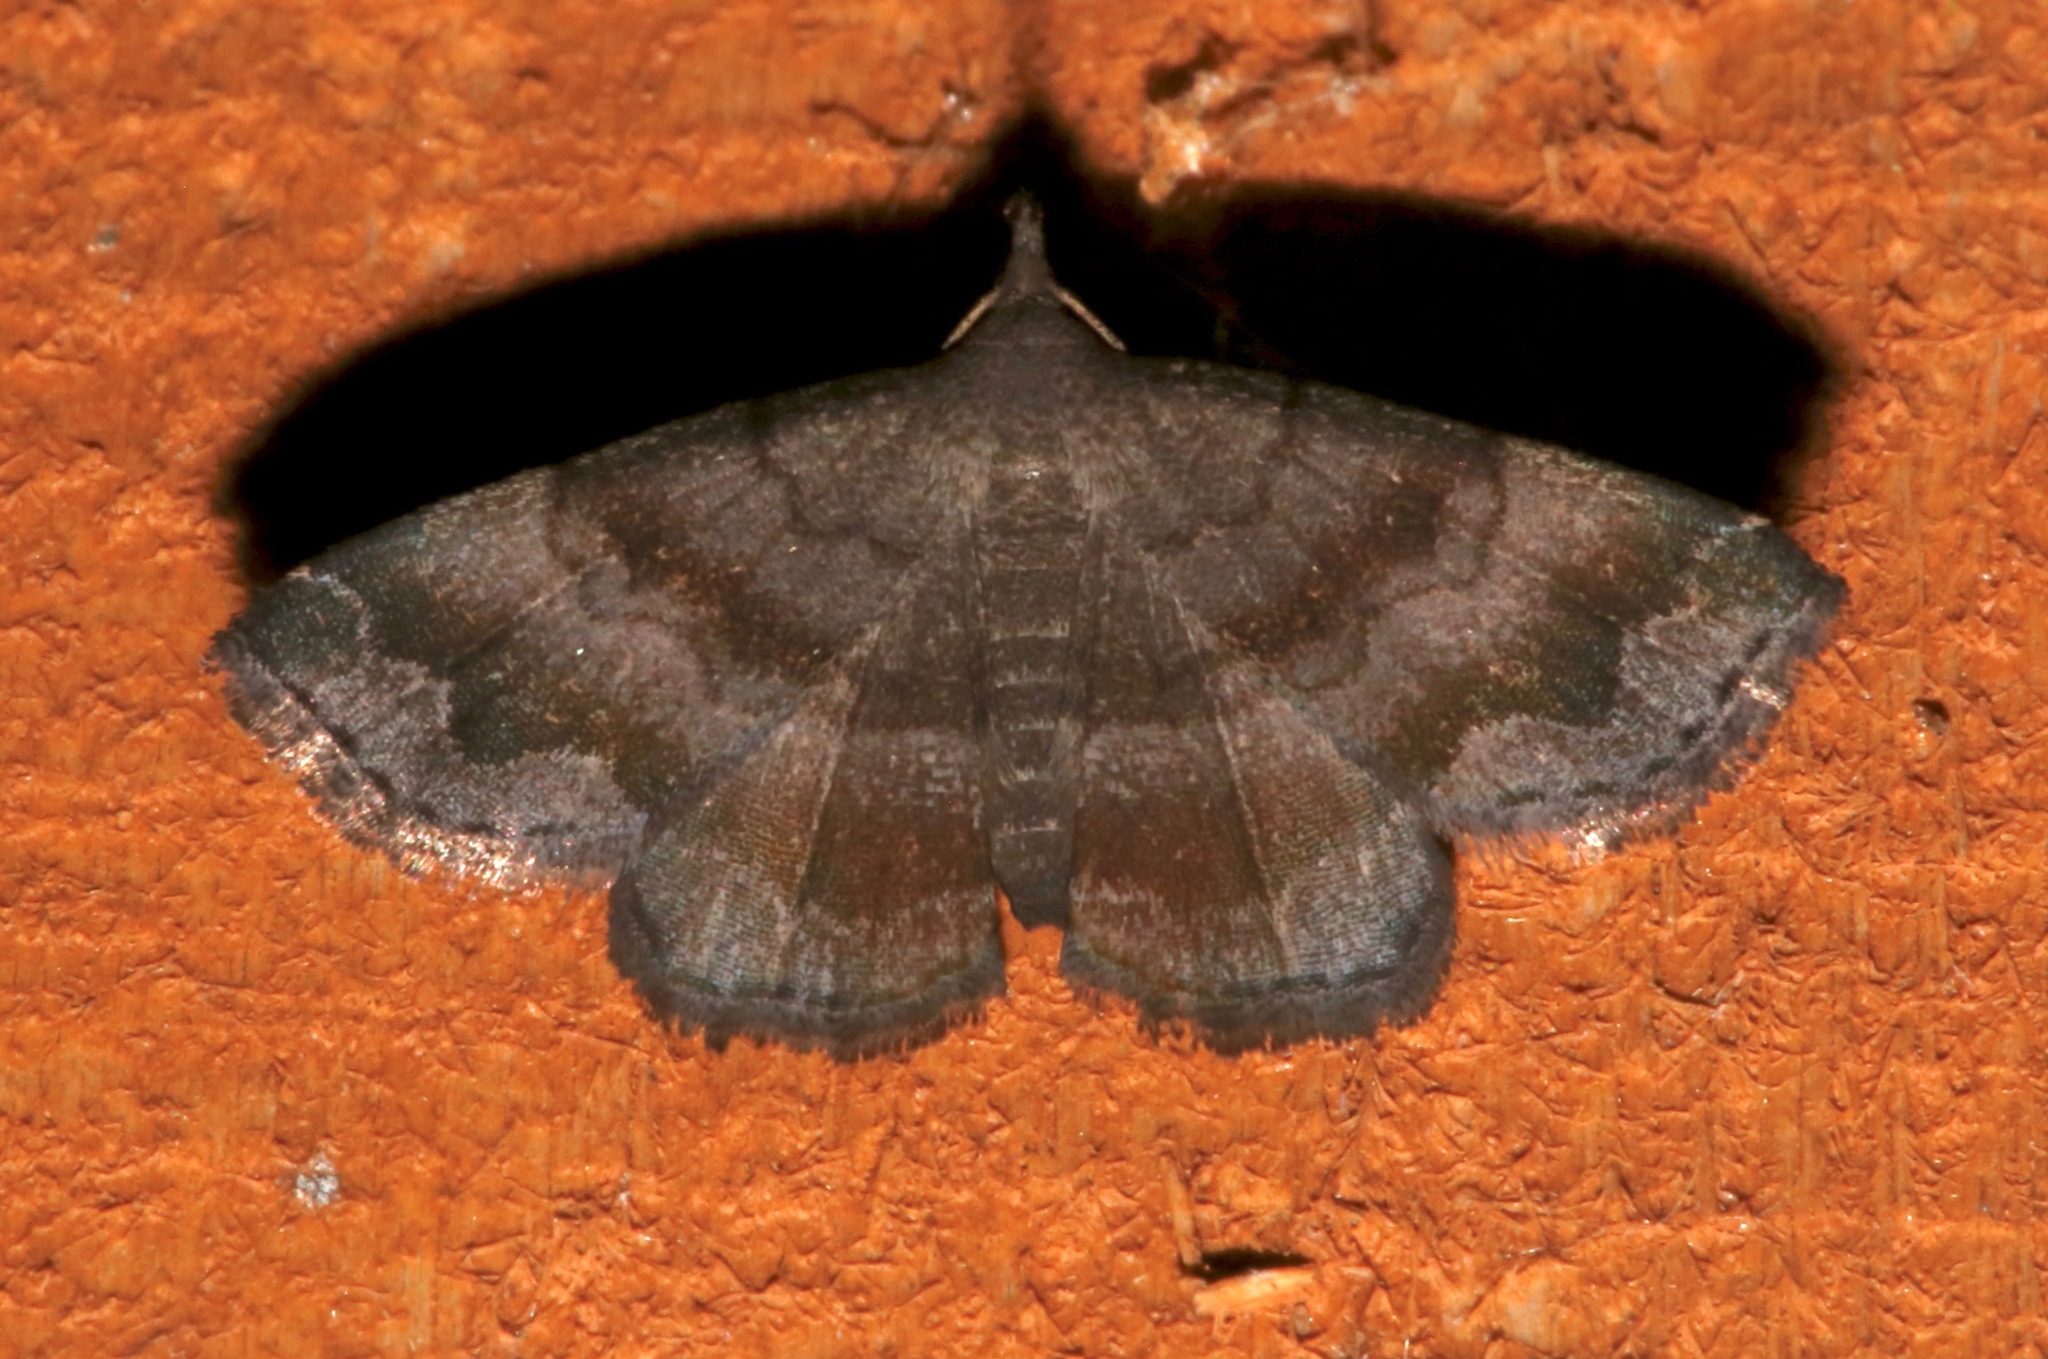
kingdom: Animalia
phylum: Arthropoda
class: Insecta
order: Lepidoptera
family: Erebidae
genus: Phalaenostola
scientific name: Phalaenostola larentioides
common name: Black-banded owlet
